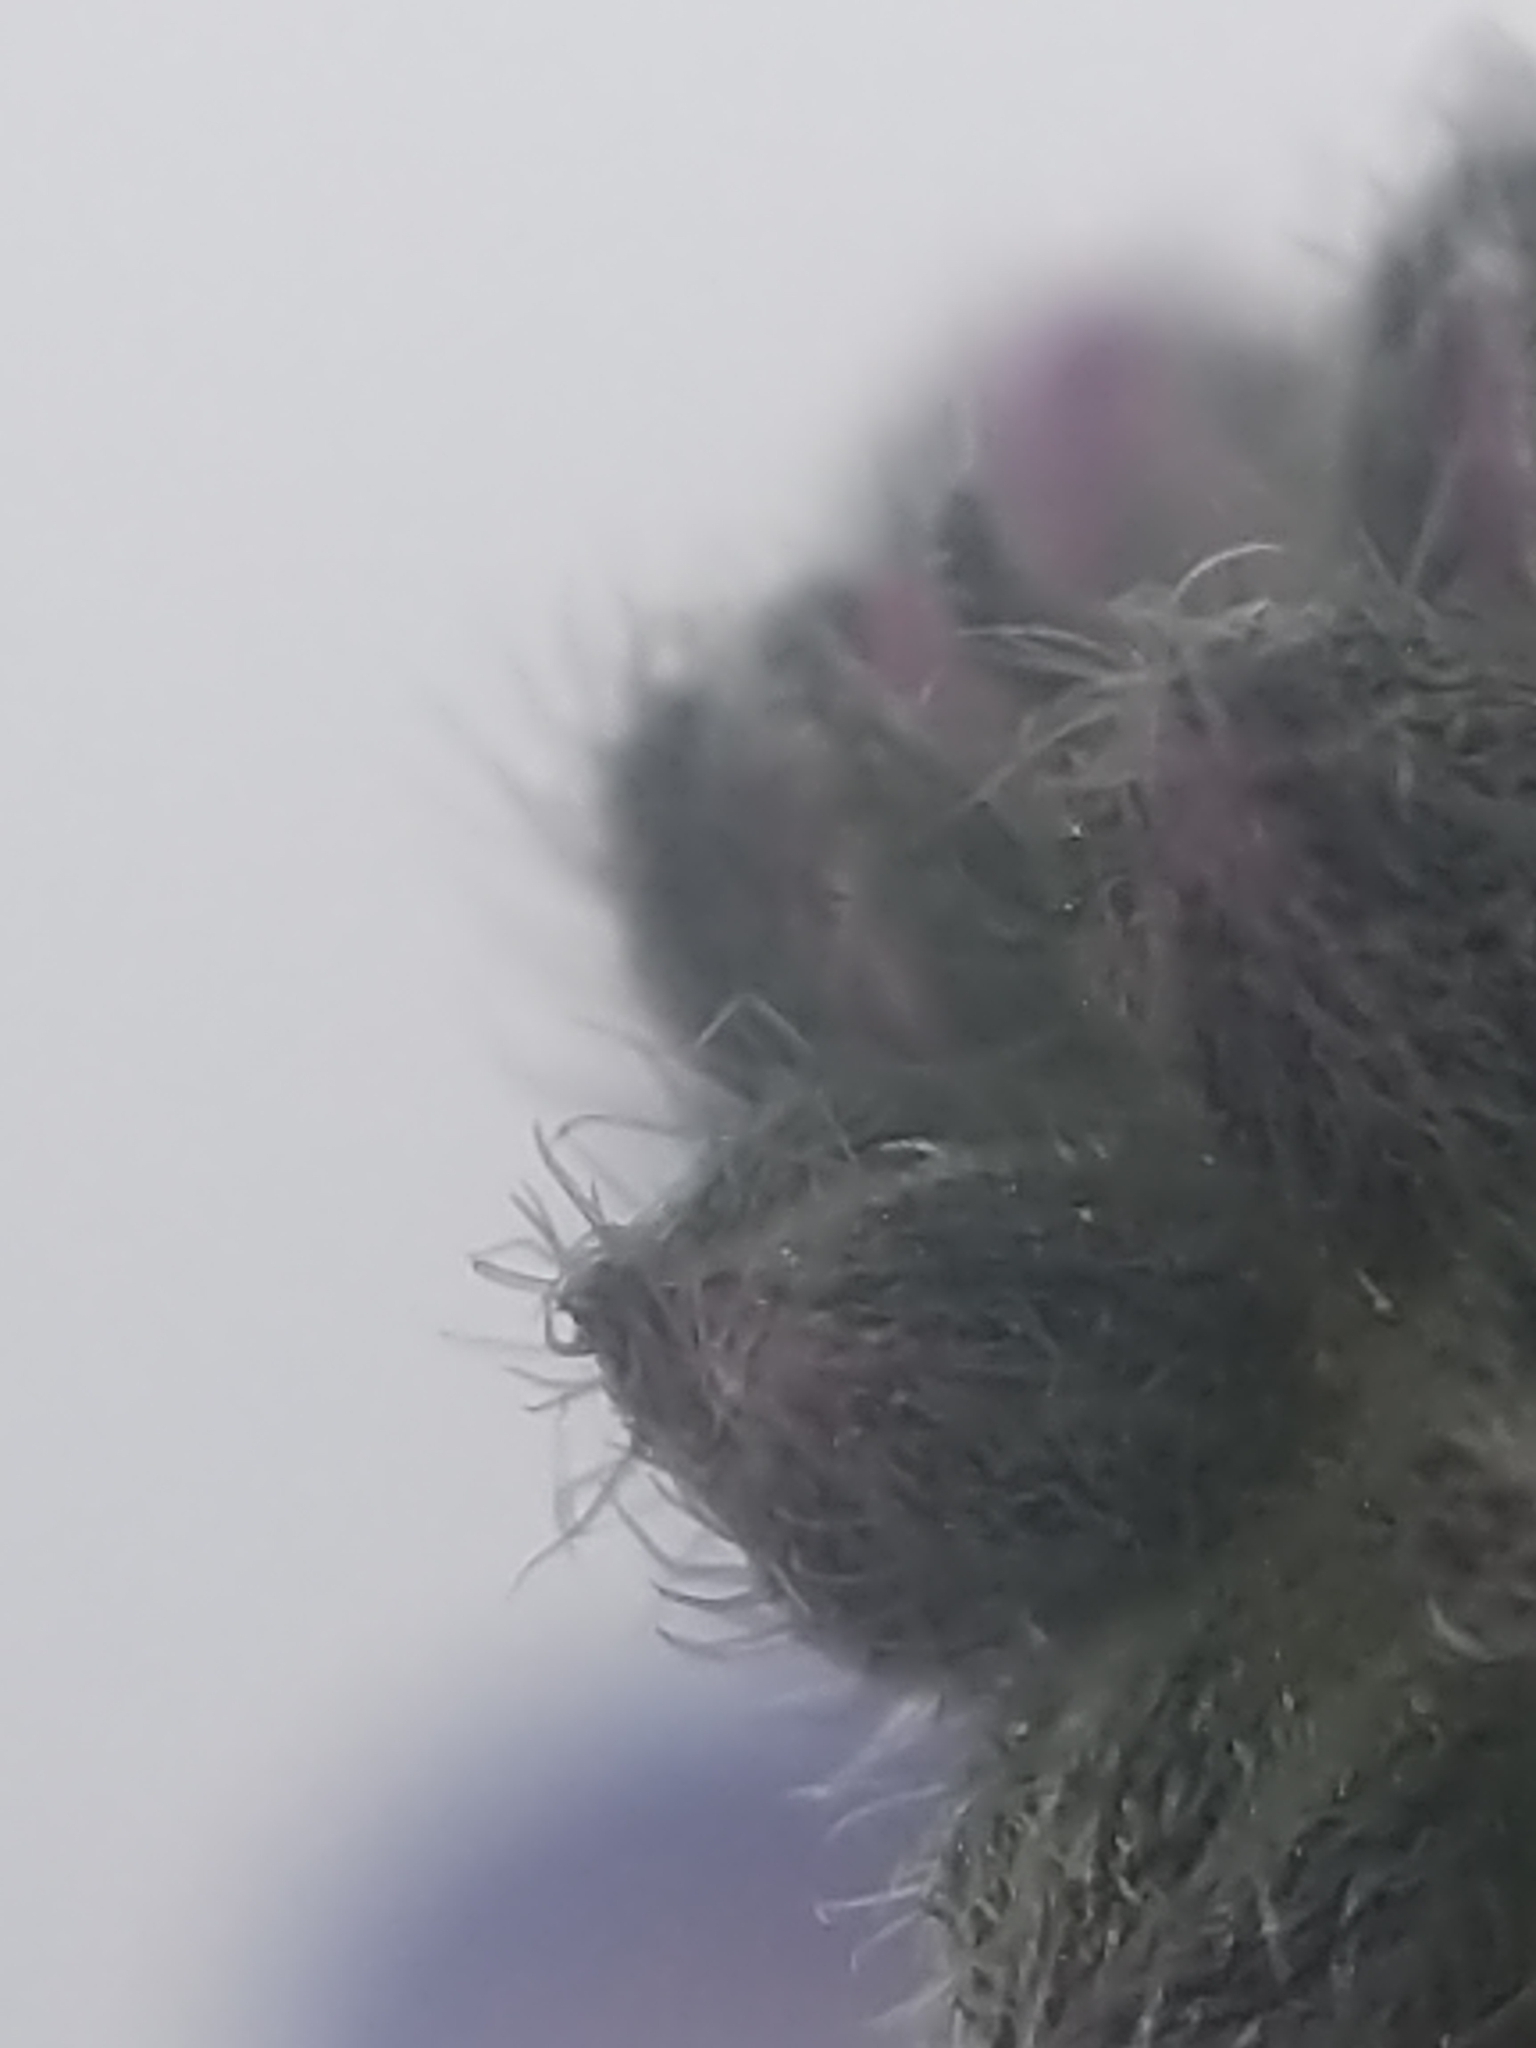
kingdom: Plantae
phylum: Tracheophyta
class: Magnoliopsida
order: Boraginales
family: Boraginaceae
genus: Myosotis
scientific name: Myosotis sylvatica
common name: Wood forget-me-not
